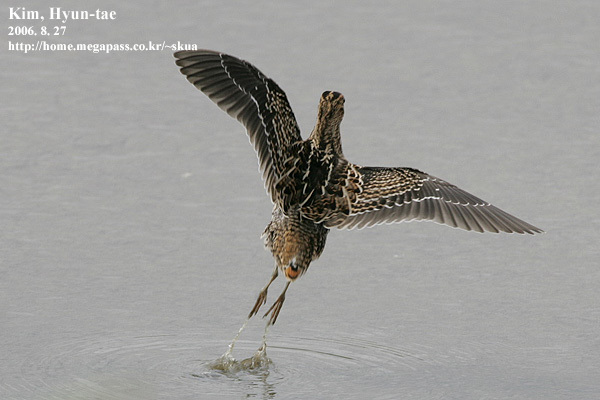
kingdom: Animalia
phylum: Chordata
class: Aves
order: Charadriiformes
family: Scolopacidae
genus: Gallinago
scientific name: Gallinago megala
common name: Swinhoe's snipe
